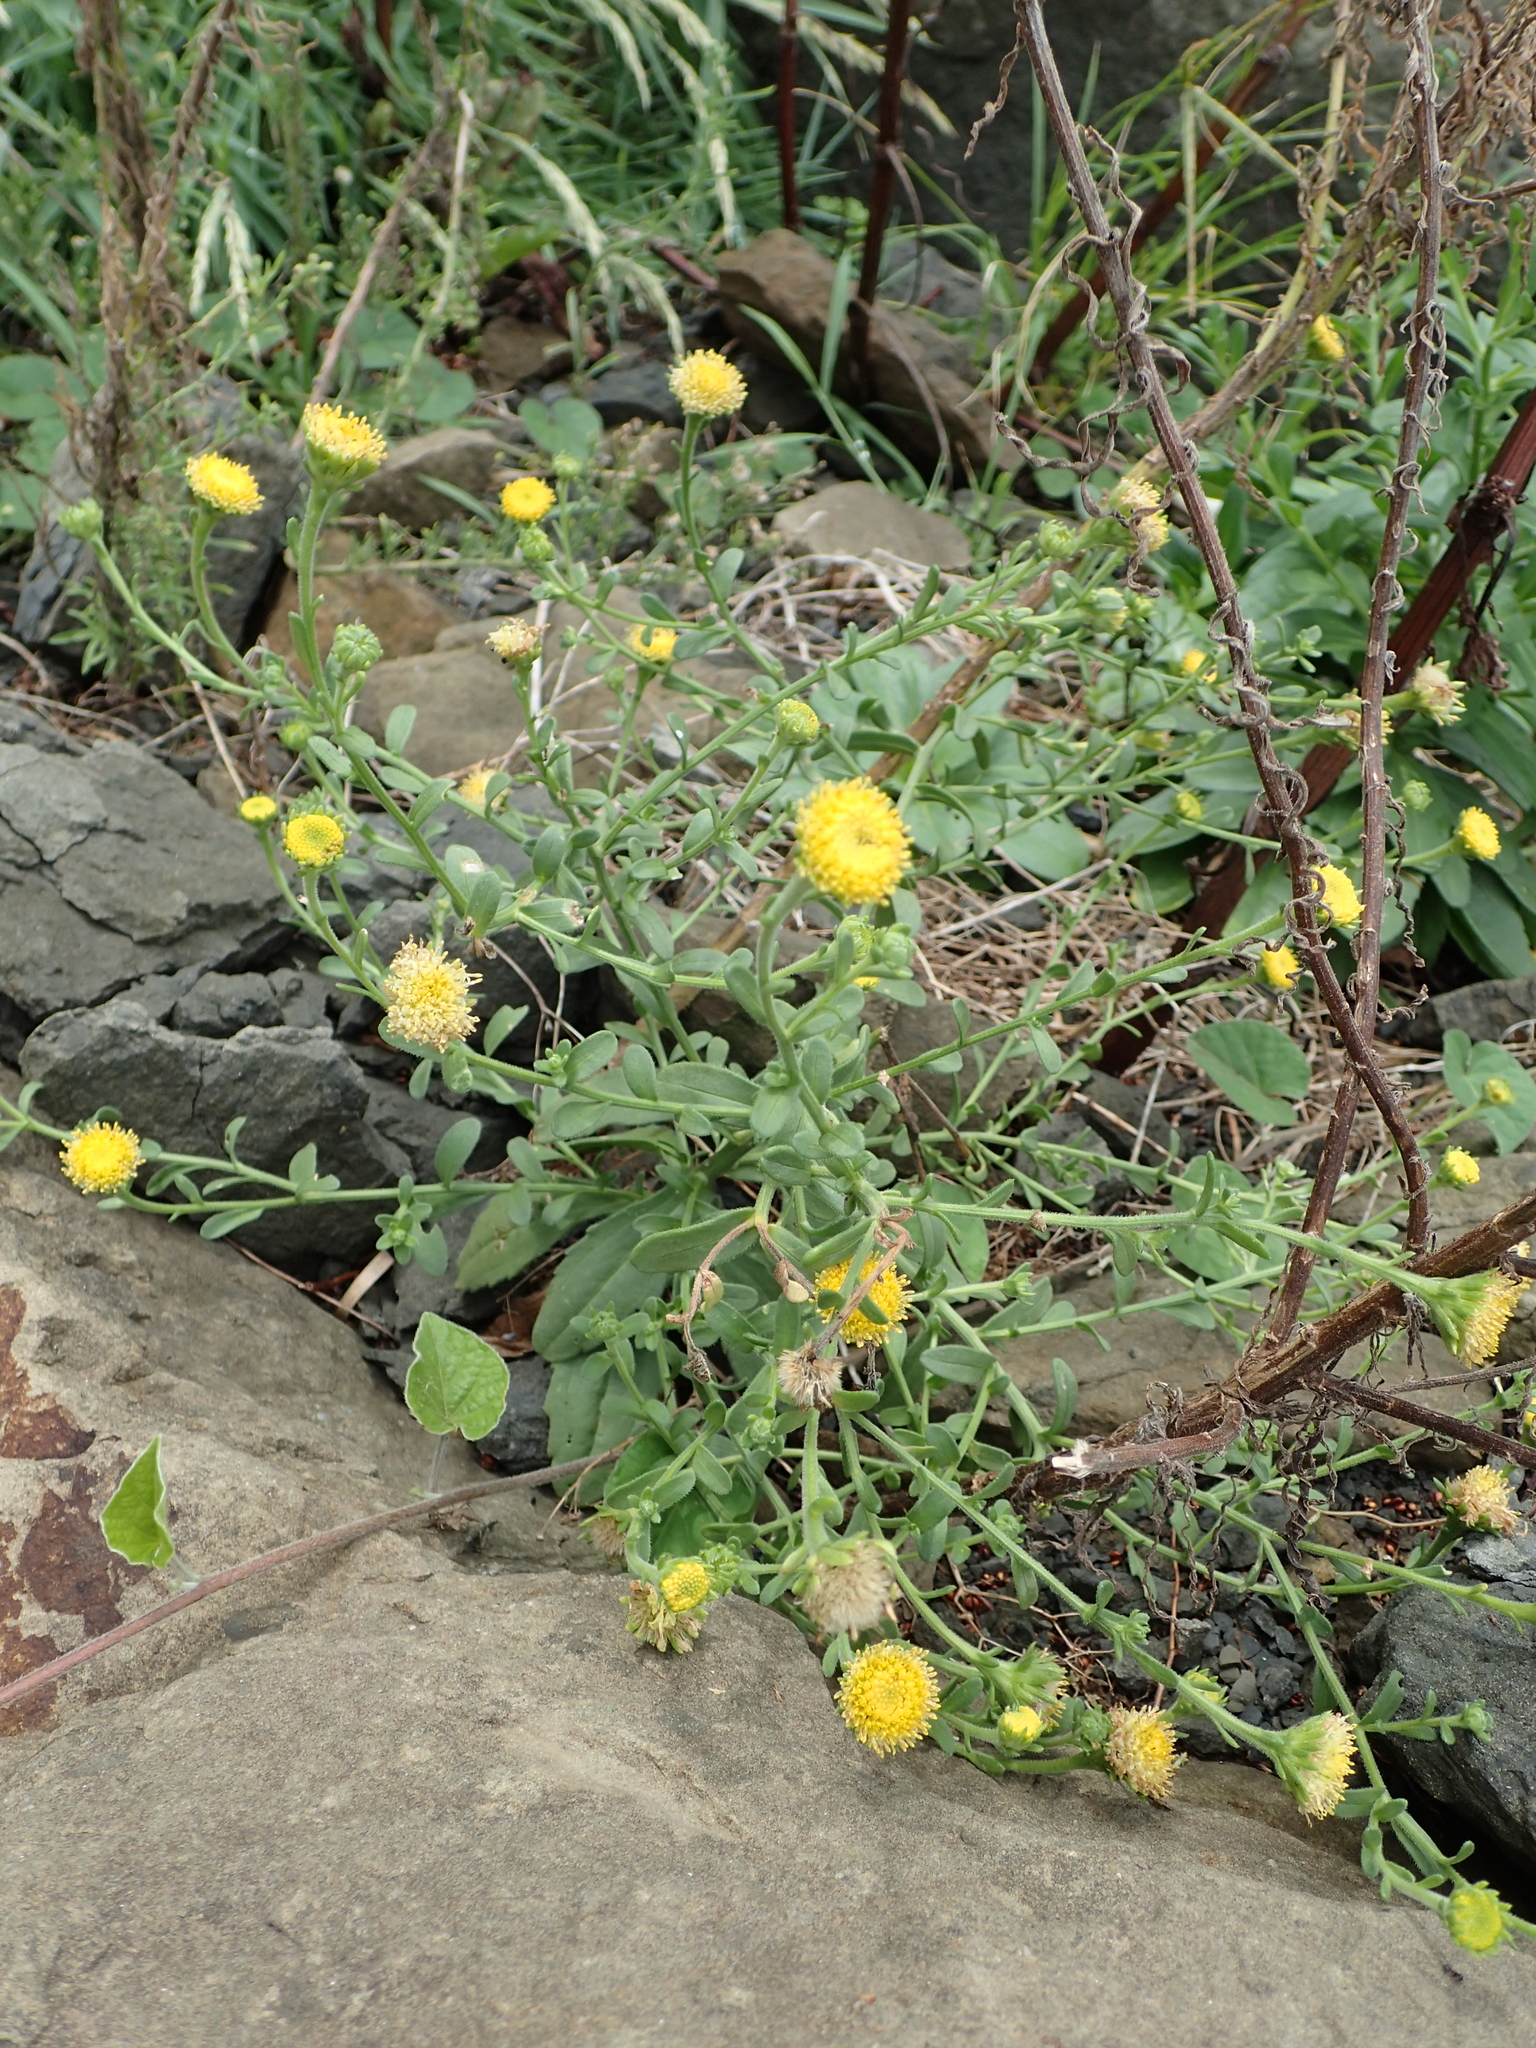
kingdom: Plantae
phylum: Tracheophyta
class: Magnoliopsida
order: Asterales
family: Asteraceae
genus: Heteropappus
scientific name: Heteropappus oldhamii
